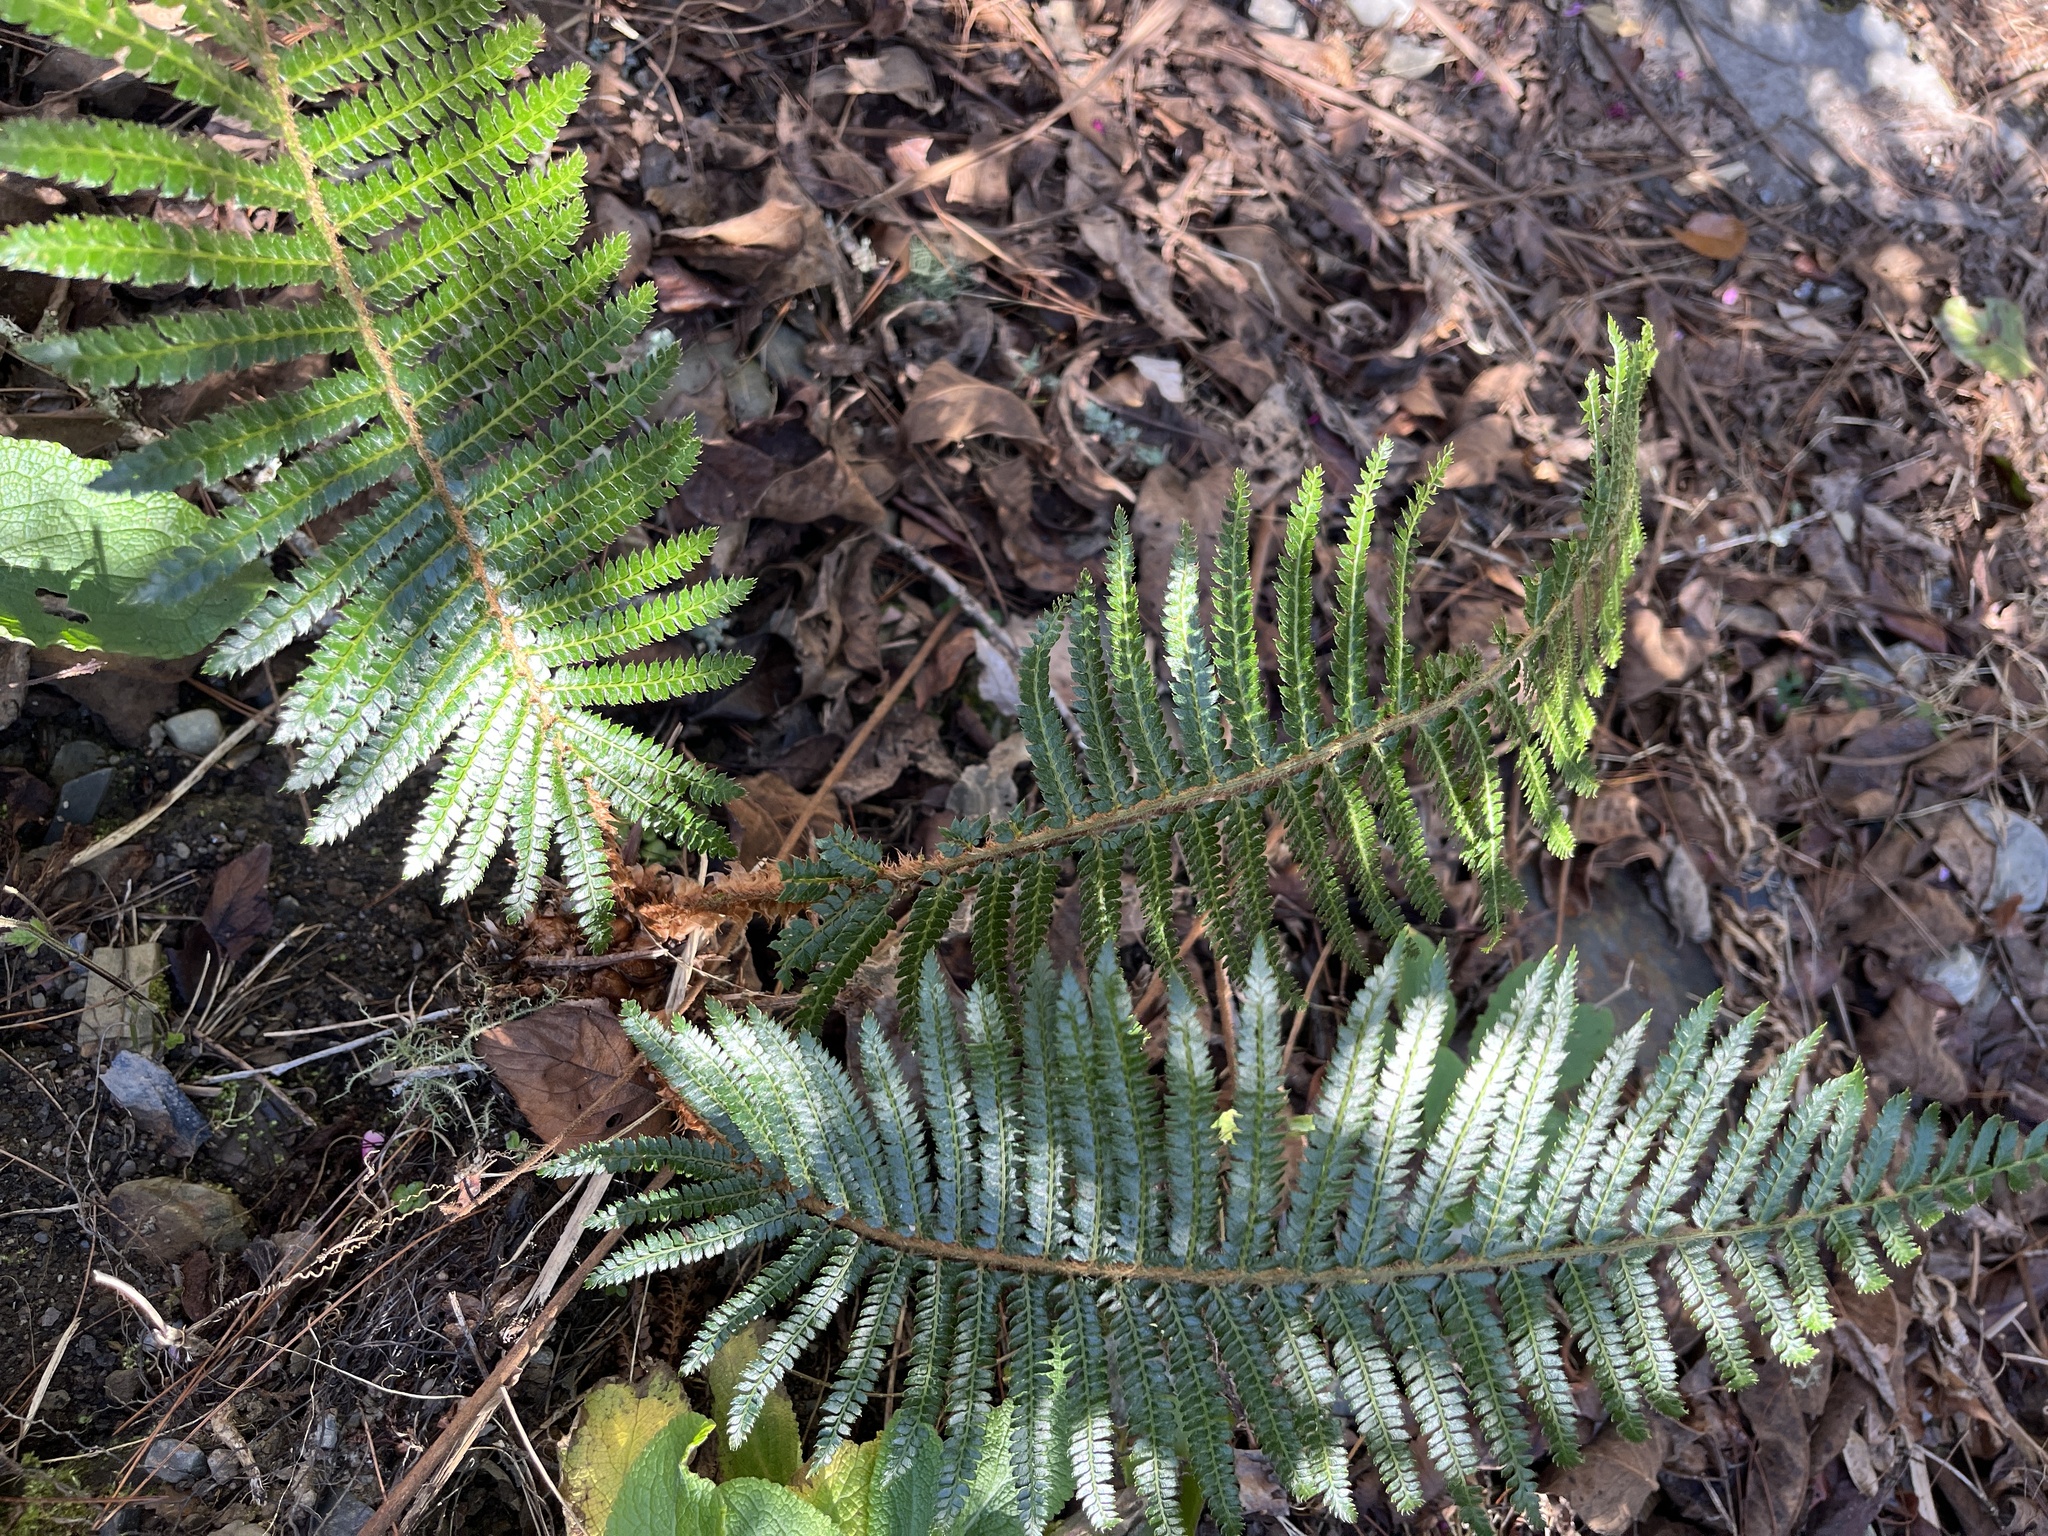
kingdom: Plantae
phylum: Tracheophyta
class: Polypodiopsida
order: Polypodiales
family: Dryopteridaceae
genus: Polystichum
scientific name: Polystichum parvipinnulum
